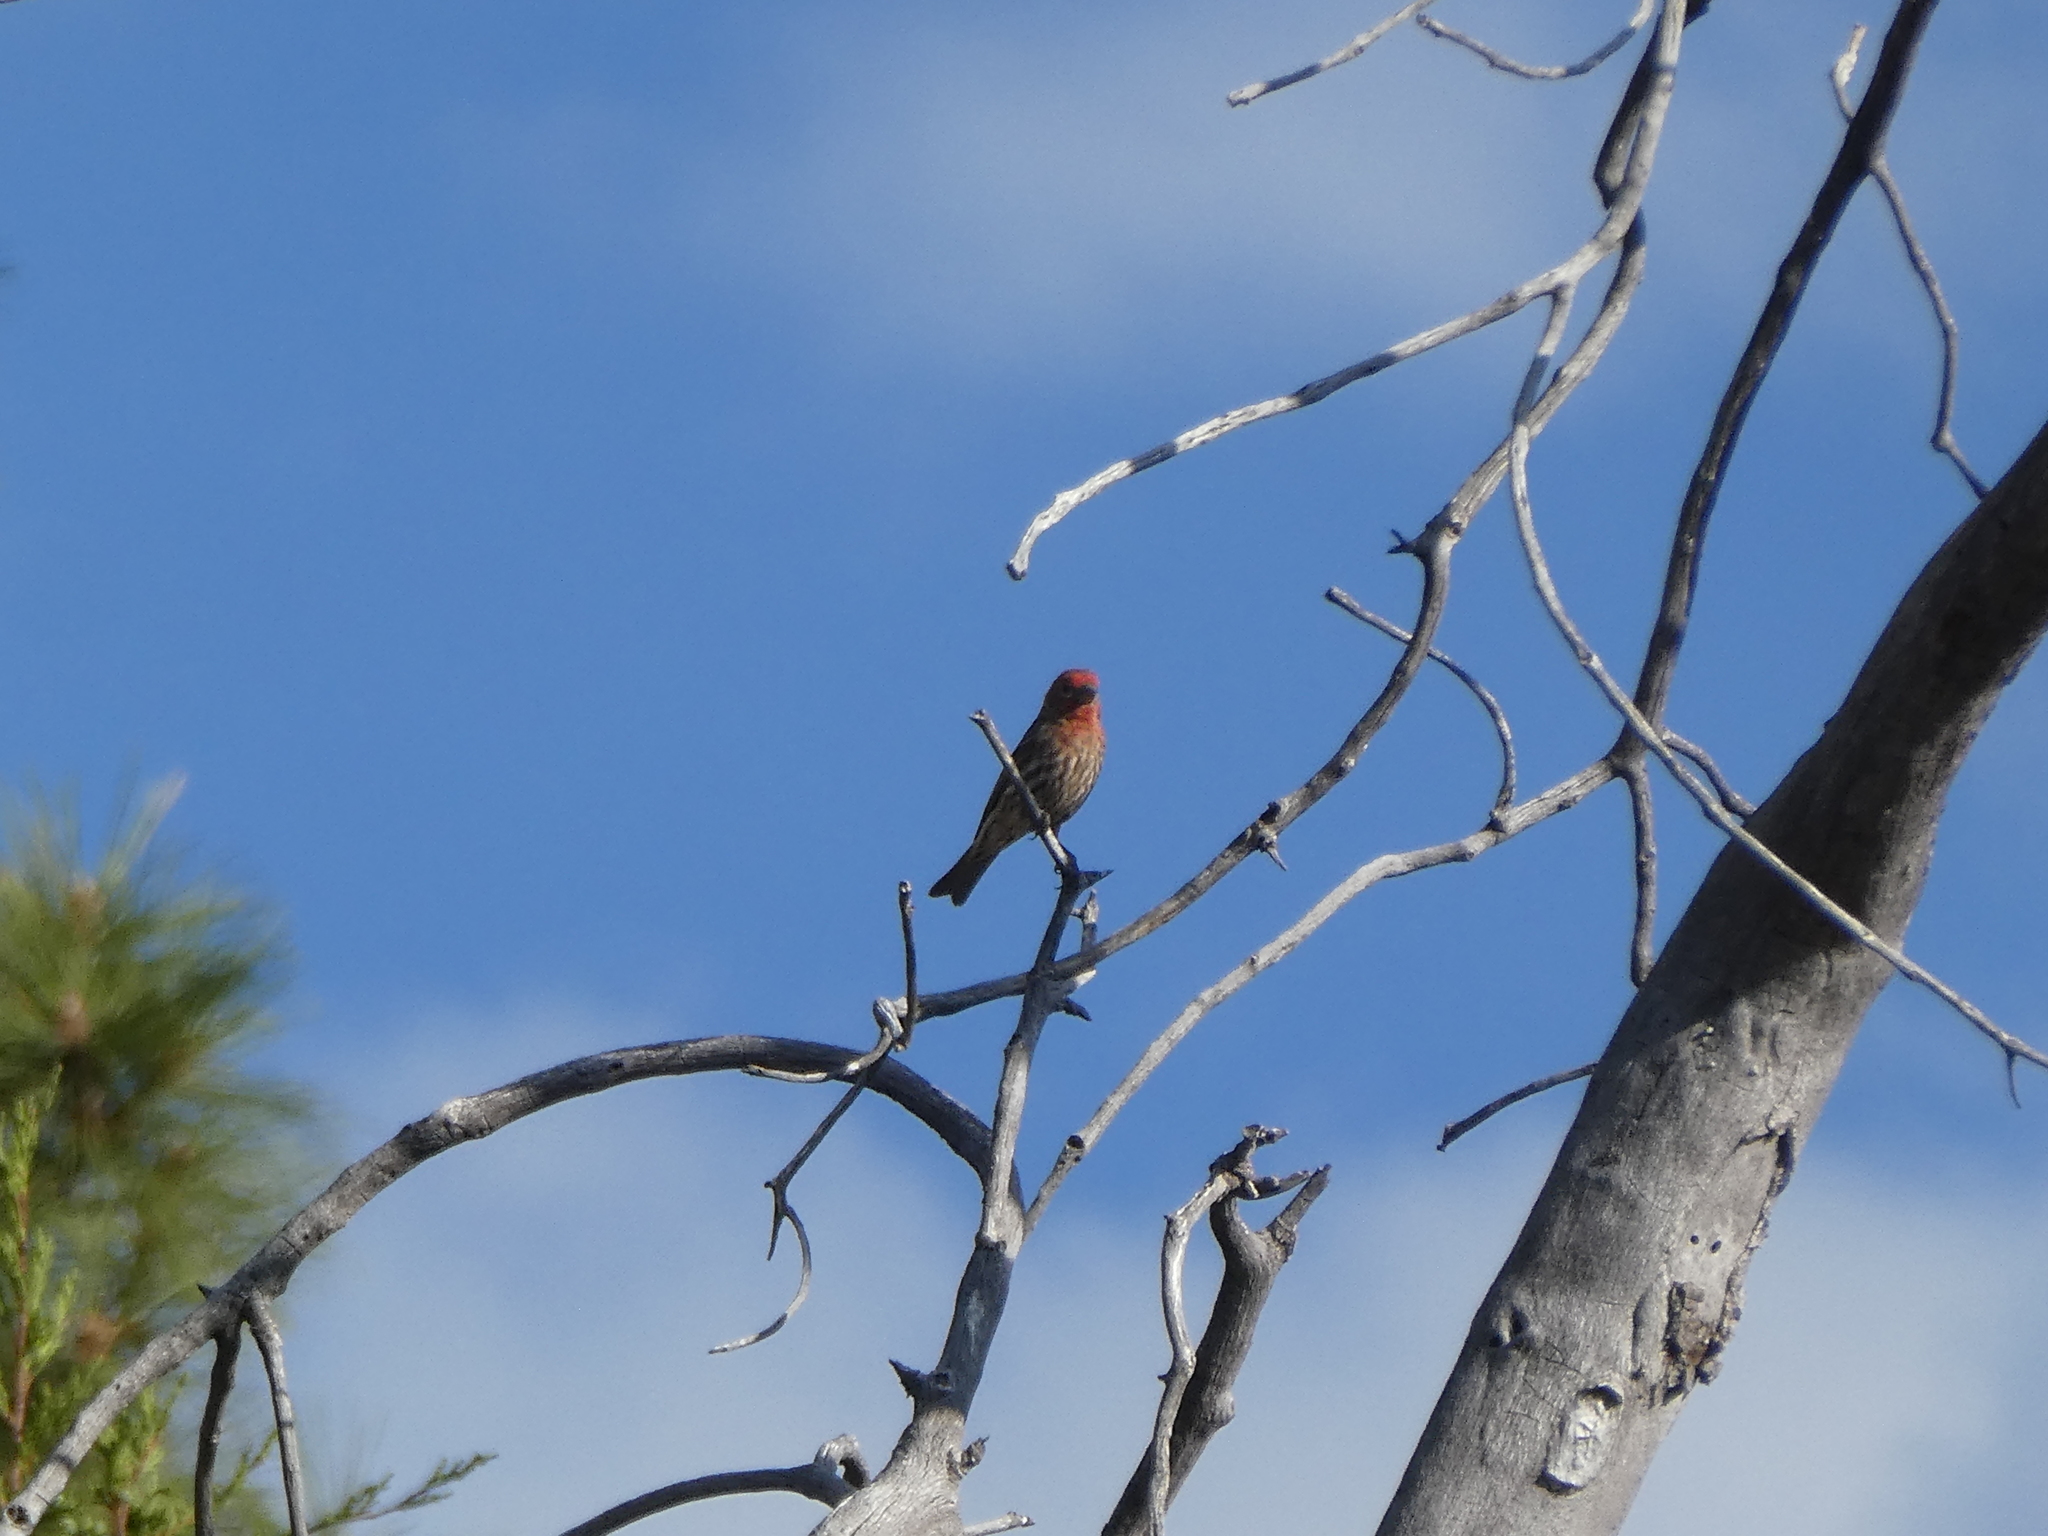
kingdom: Animalia
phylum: Chordata
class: Aves
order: Passeriformes
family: Fringillidae
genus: Haemorhous
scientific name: Haemorhous mexicanus
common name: House finch
